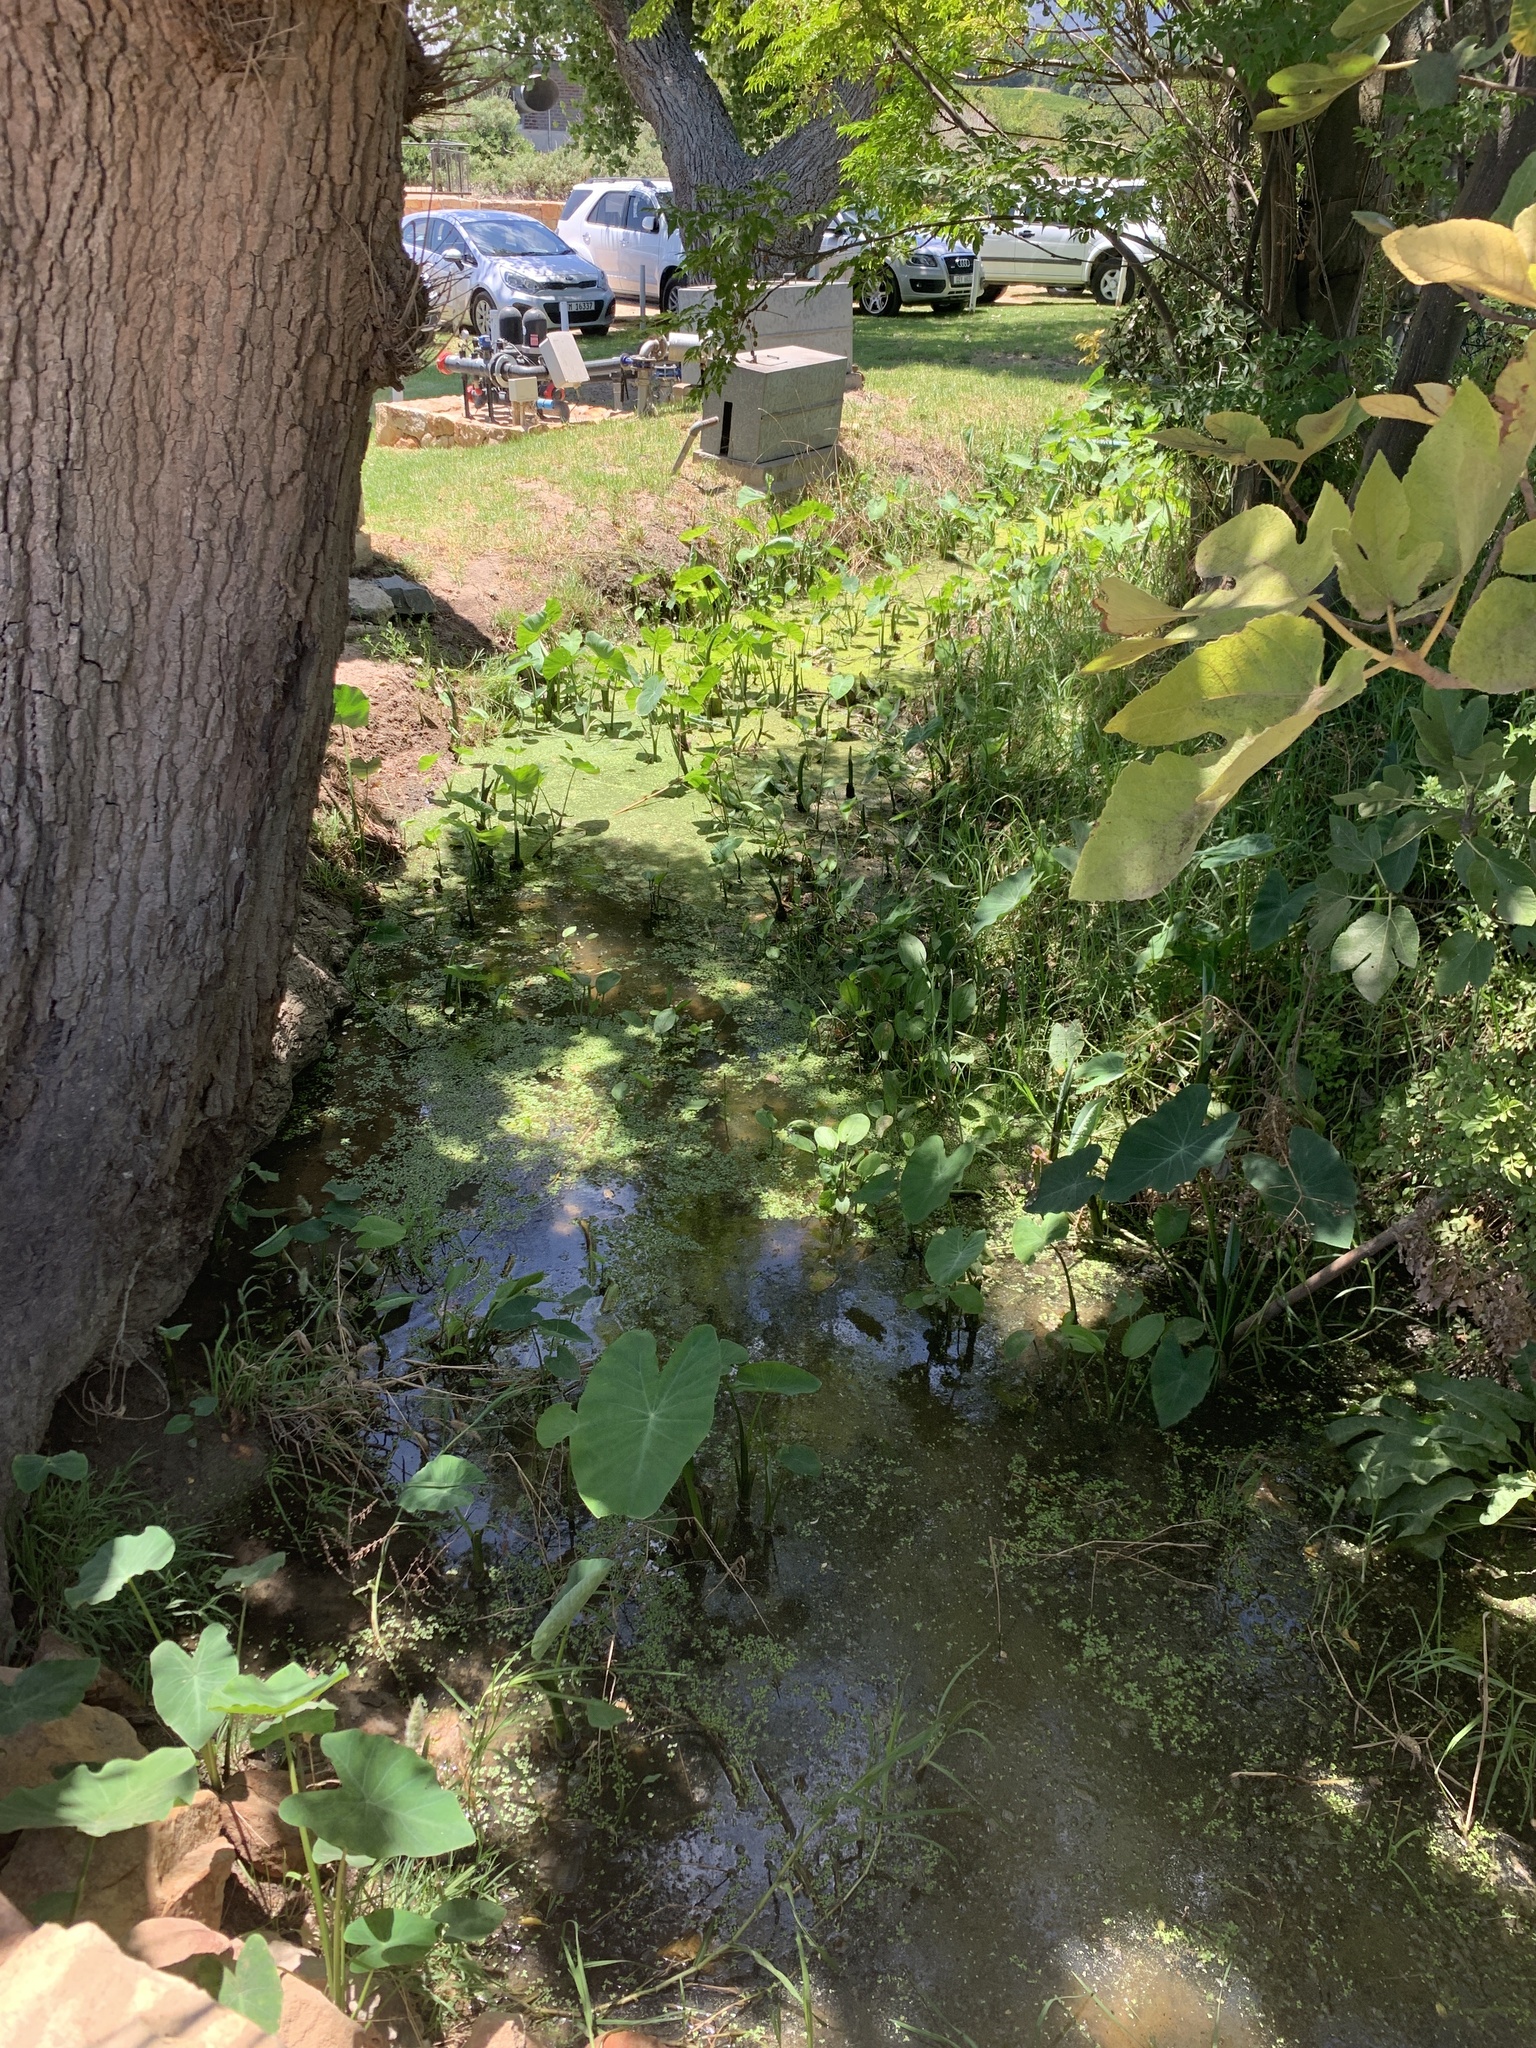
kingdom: Plantae
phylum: Tracheophyta
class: Liliopsida
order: Alismatales
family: Araceae
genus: Colocasia
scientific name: Colocasia esculenta
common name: Taro
